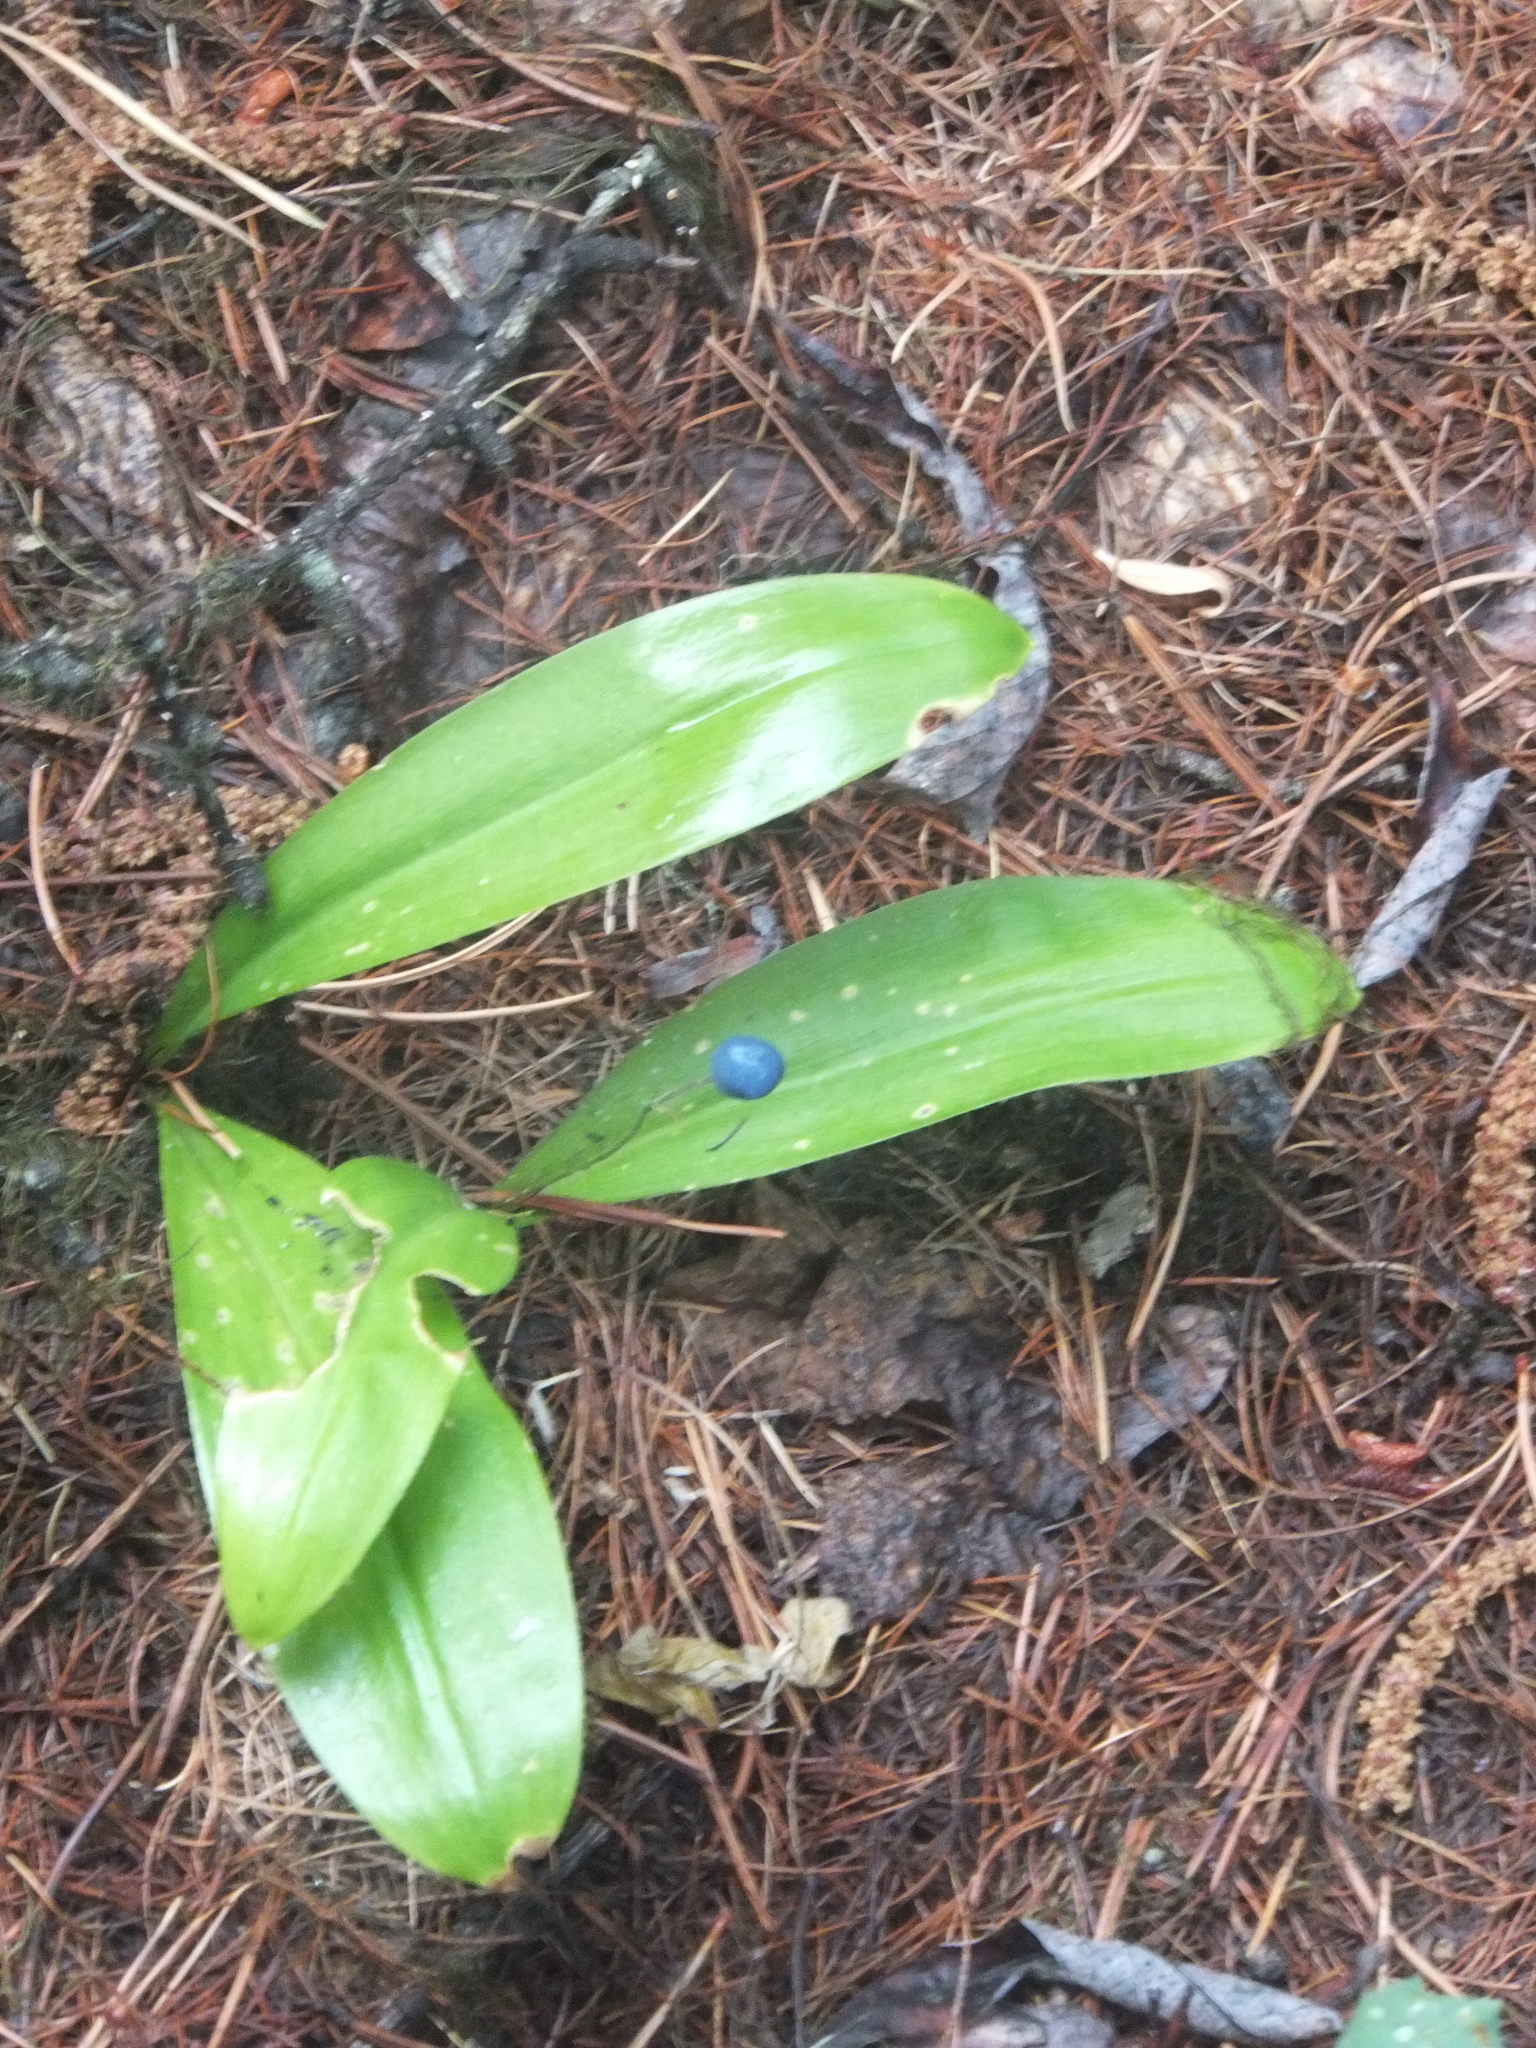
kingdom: Plantae
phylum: Tracheophyta
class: Liliopsida
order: Liliales
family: Liliaceae
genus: Clintonia
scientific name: Clintonia uniflora
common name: Queen's cup
